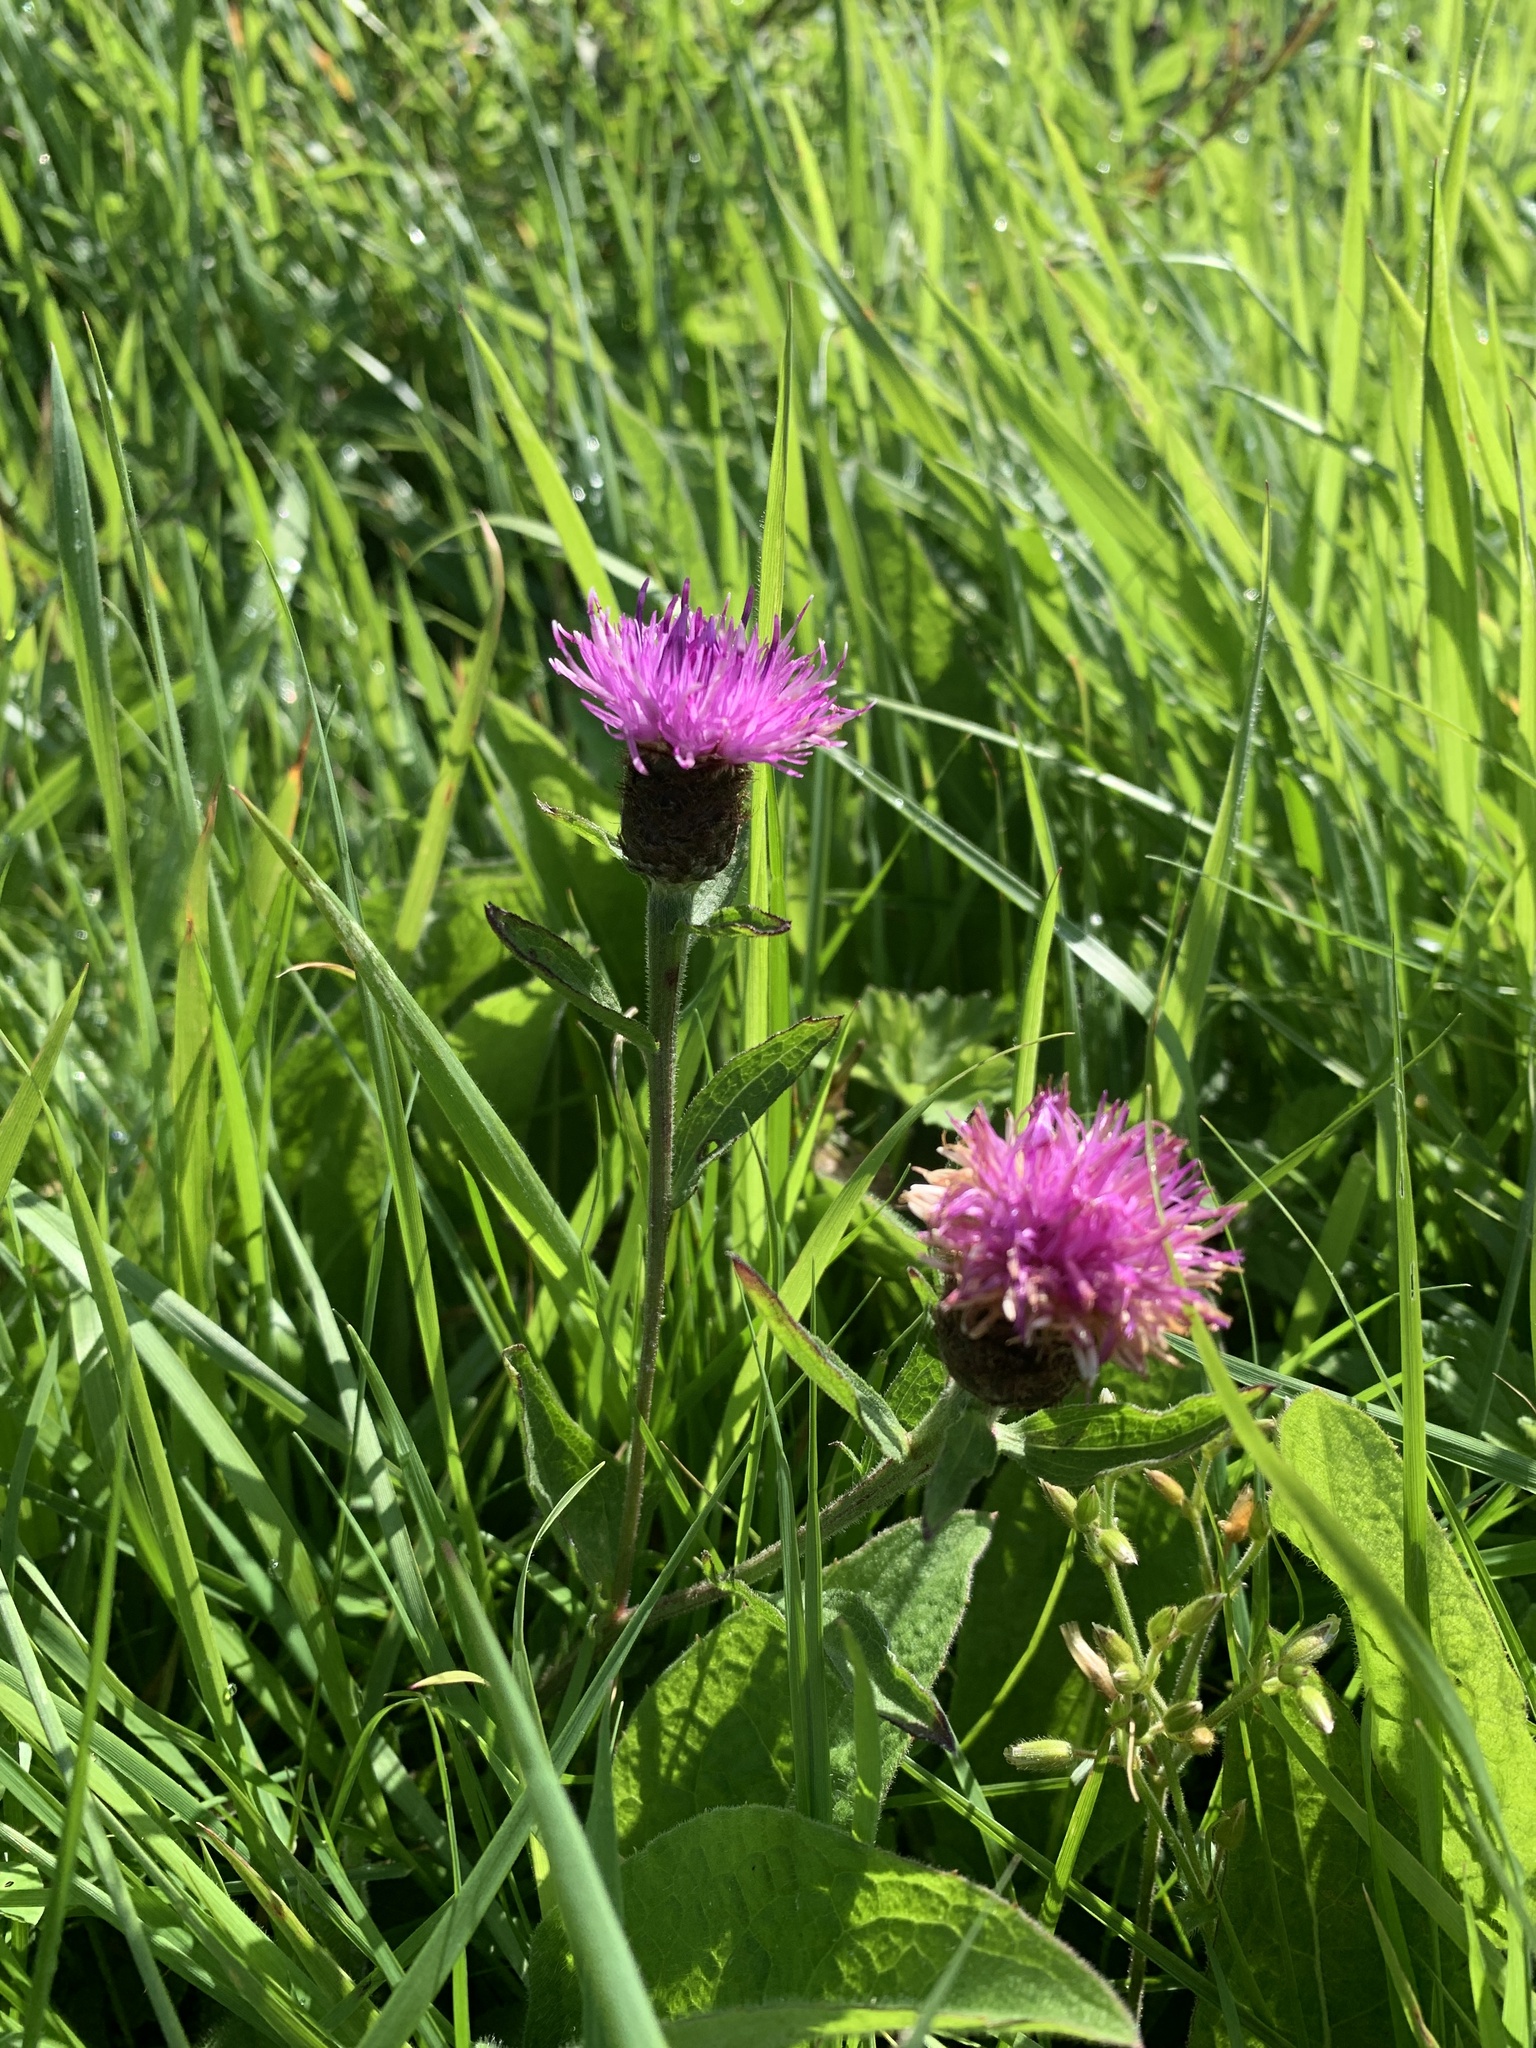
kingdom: Plantae
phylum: Tracheophyta
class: Magnoliopsida
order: Asterales
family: Asteraceae
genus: Centaurea
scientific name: Centaurea nigra
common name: Lesser knapweed
